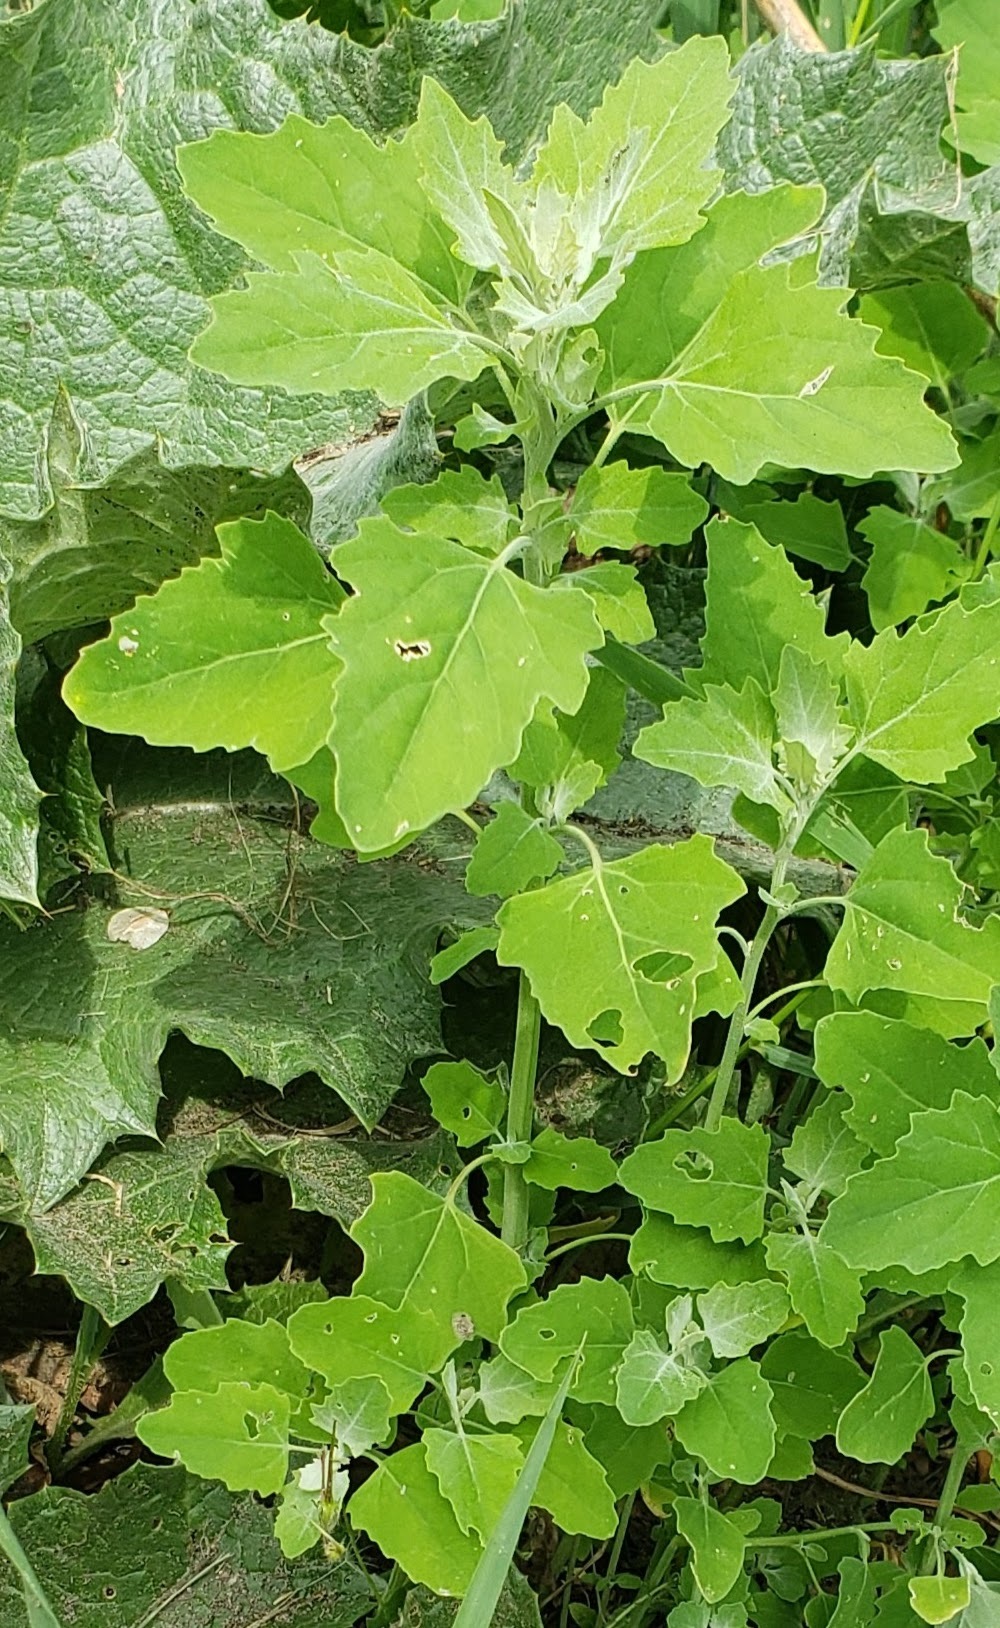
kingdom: Plantae
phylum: Tracheophyta
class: Magnoliopsida
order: Caryophyllales
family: Amaranthaceae
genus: Chenopodium
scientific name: Chenopodium album
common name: Fat-hen
